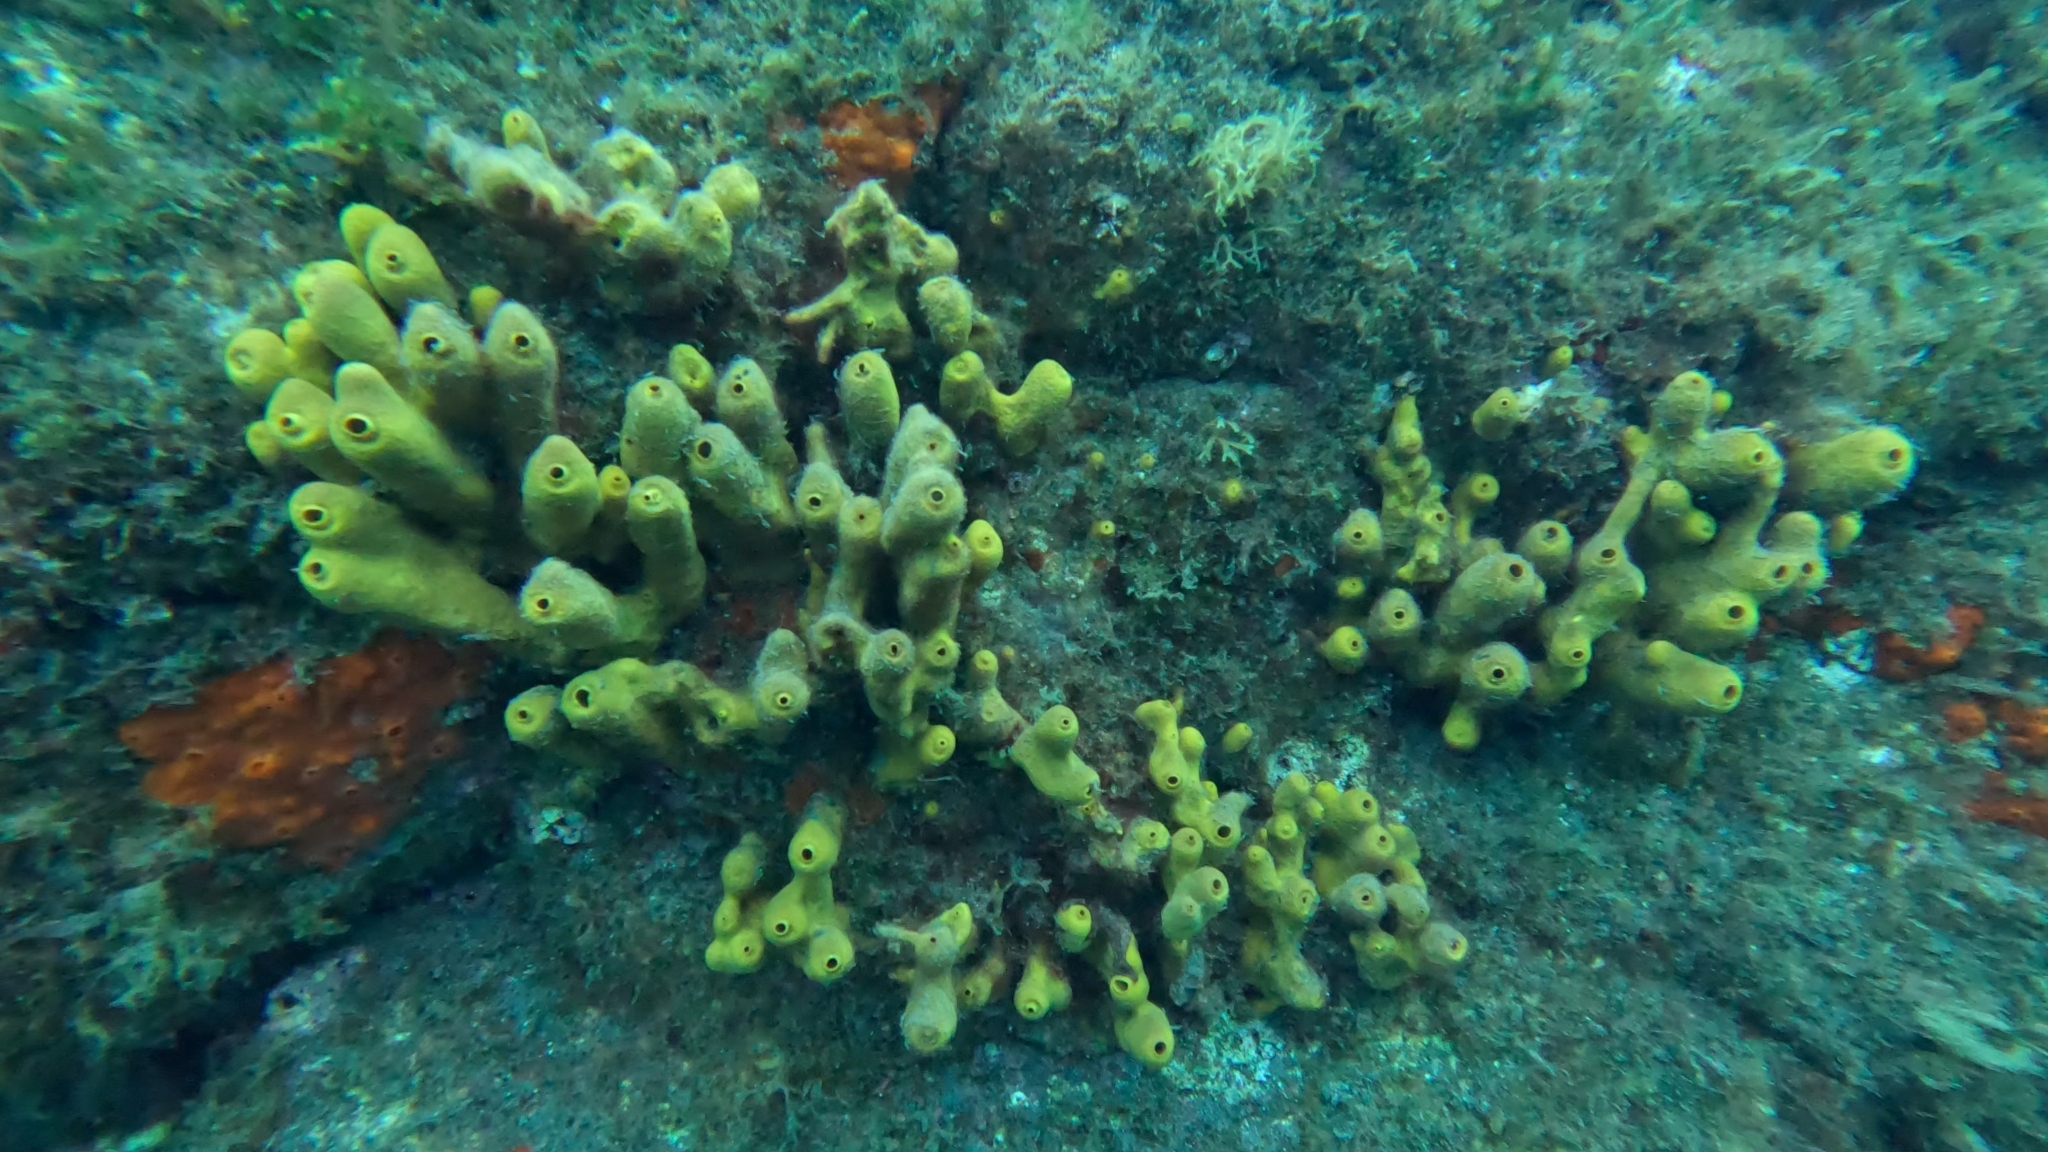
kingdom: Animalia
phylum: Porifera
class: Demospongiae
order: Verongiida
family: Aplysinidae
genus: Aplysina
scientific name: Aplysina aerophoba
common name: Aureate sponge
